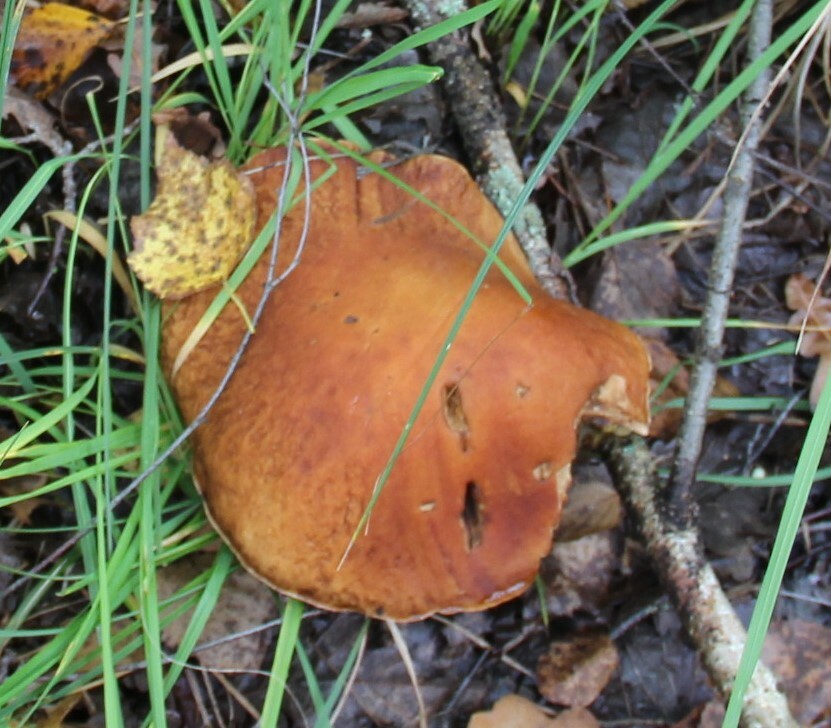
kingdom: Fungi
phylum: Basidiomycota
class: Agaricomycetes
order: Boletales
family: Boletaceae
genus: Boletus
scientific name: Boletus edulis
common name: Cep
